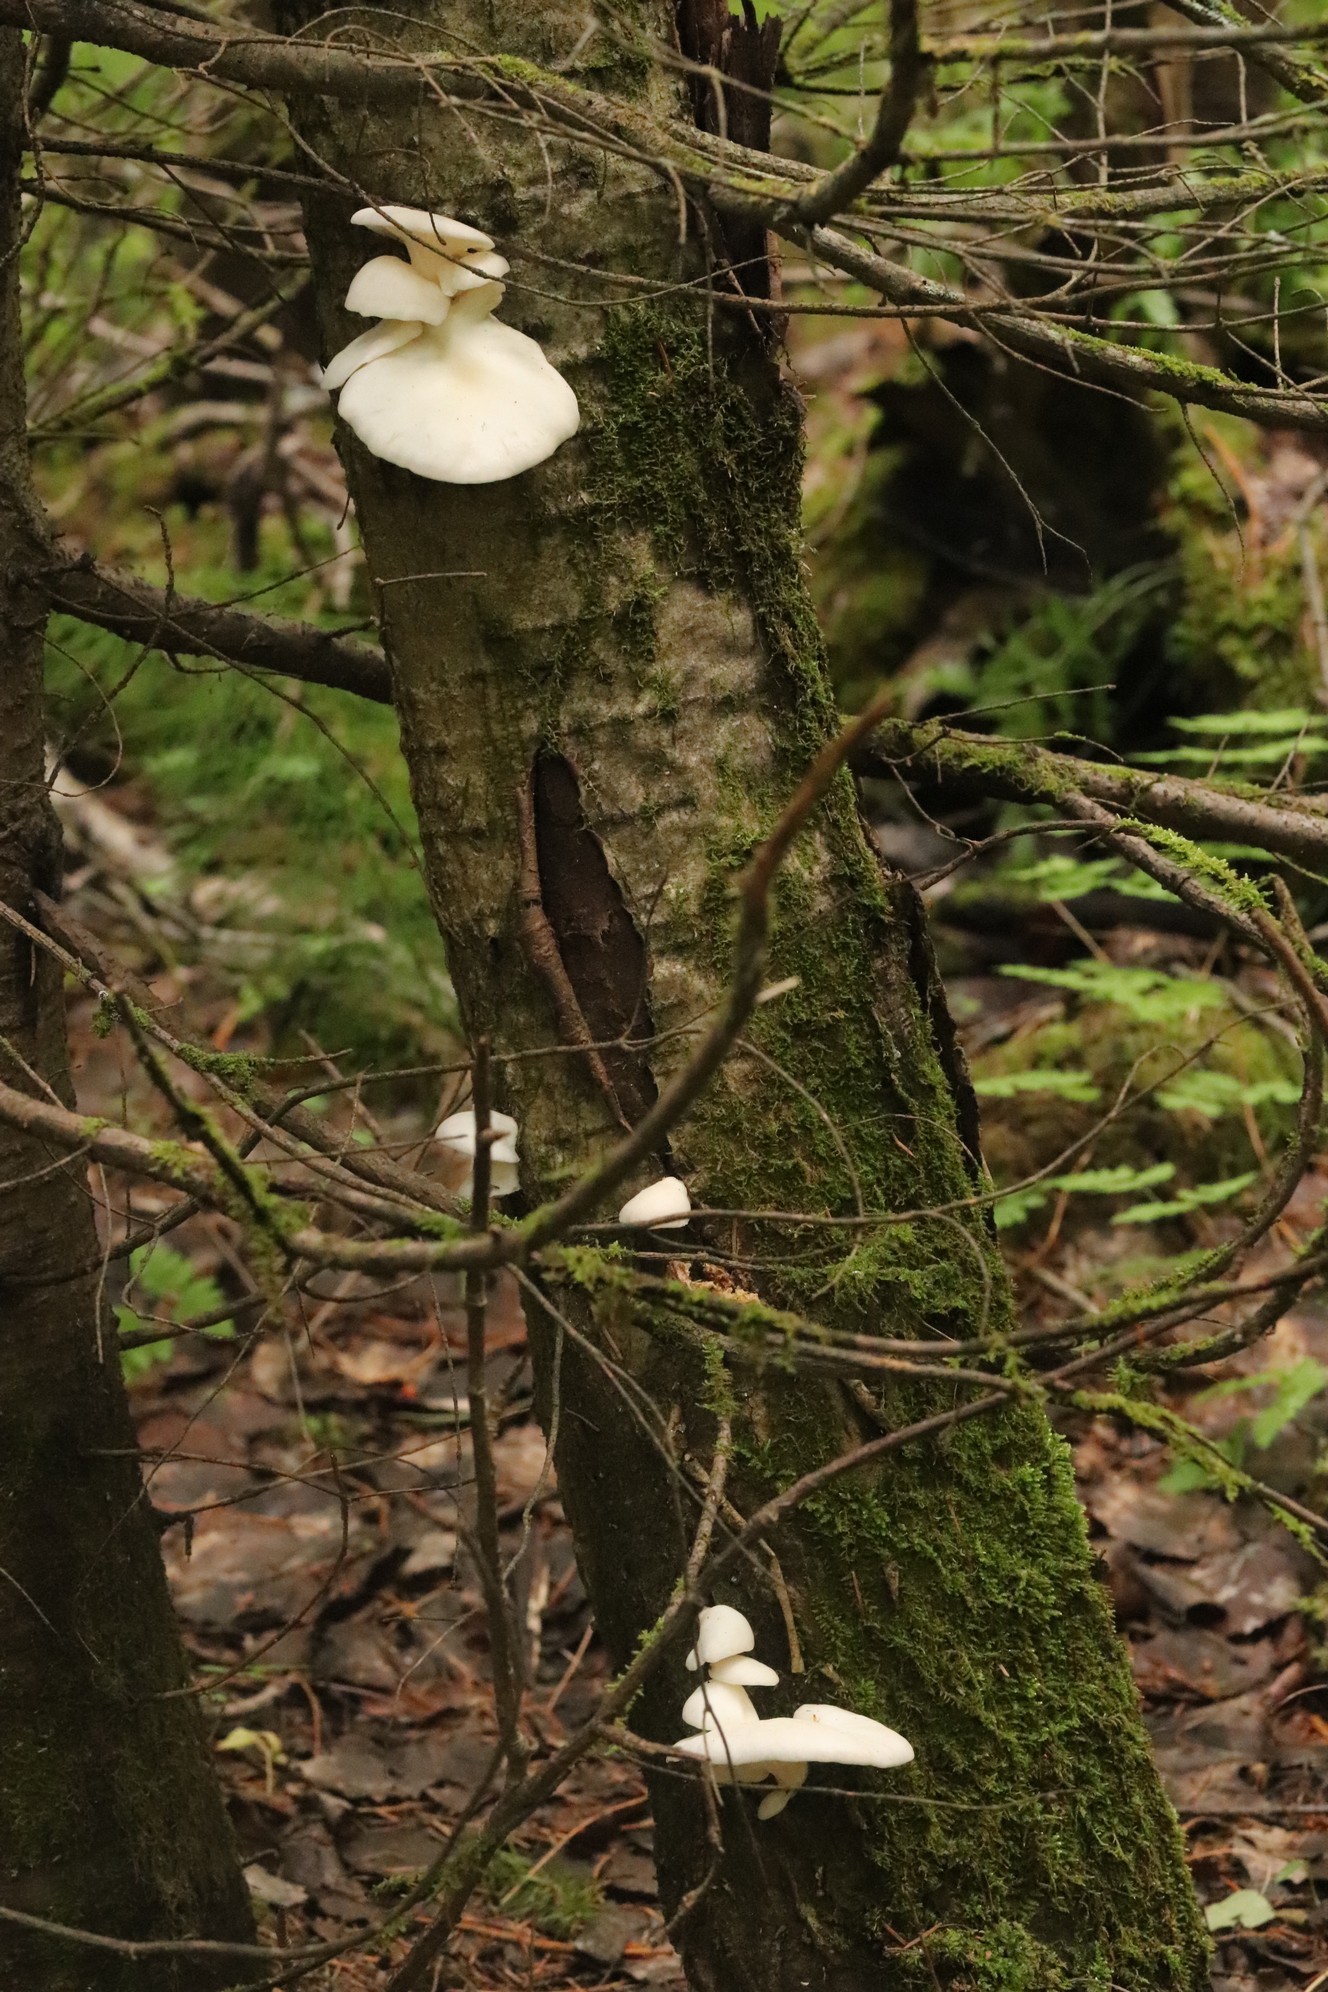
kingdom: Fungi
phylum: Basidiomycota
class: Agaricomycetes
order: Agaricales
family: Pleurotaceae
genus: Pleurotus
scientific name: Pleurotus pulmonarius
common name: Pale oyster
